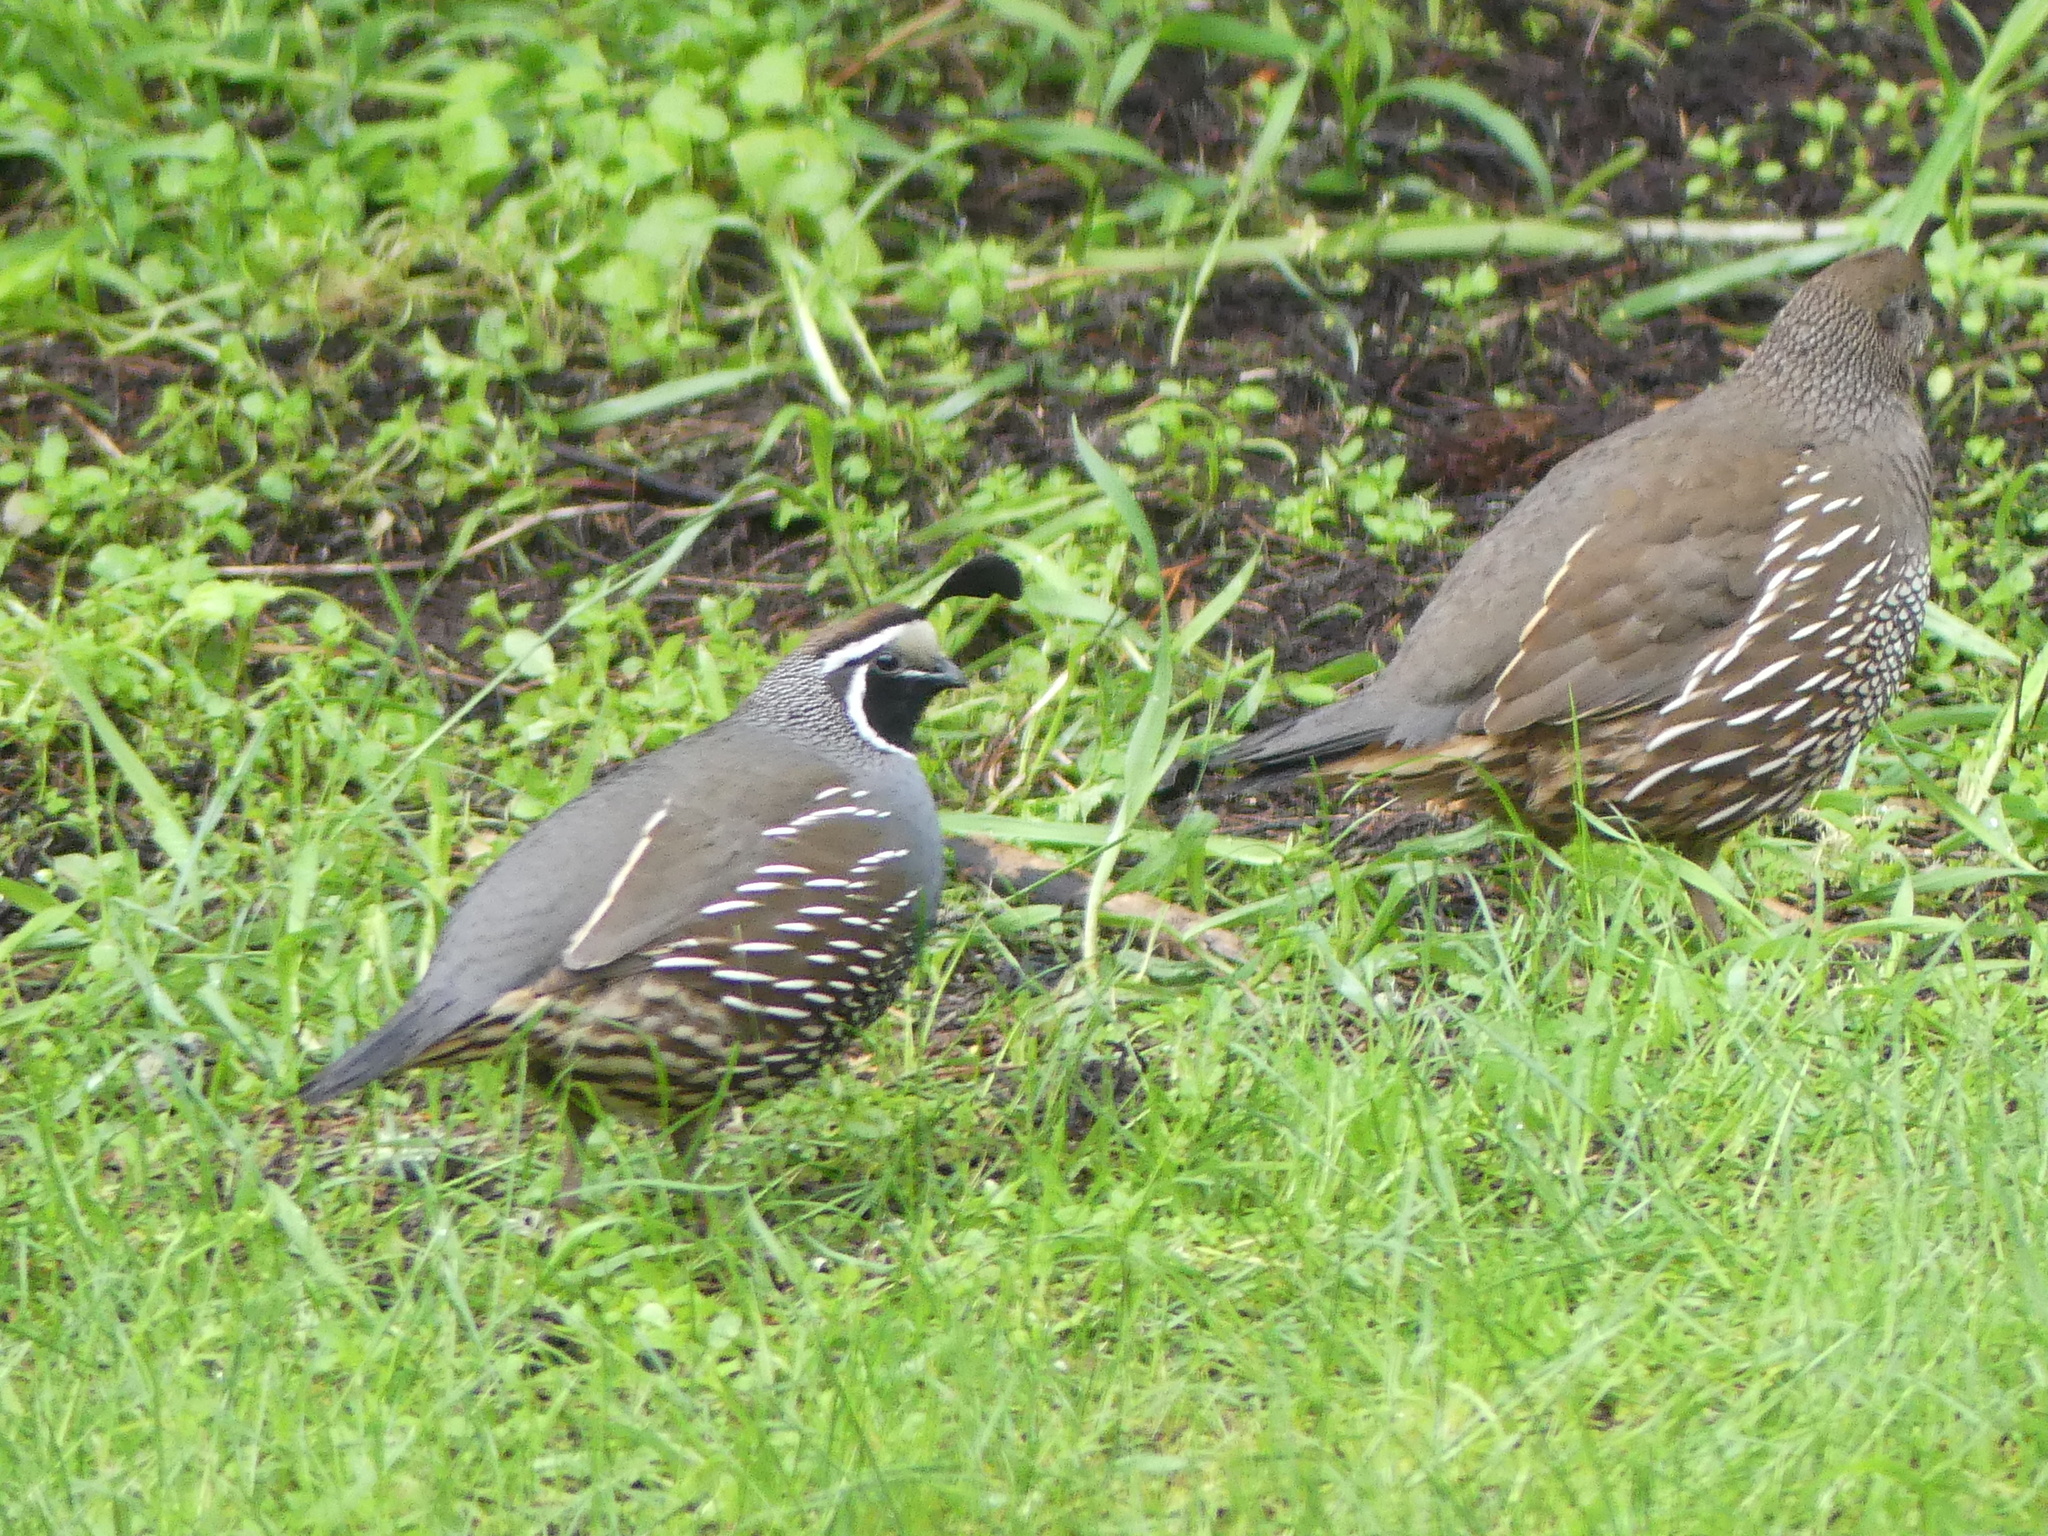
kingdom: Animalia
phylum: Chordata
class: Aves
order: Galliformes
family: Odontophoridae
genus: Callipepla
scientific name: Callipepla californica
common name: California quail
